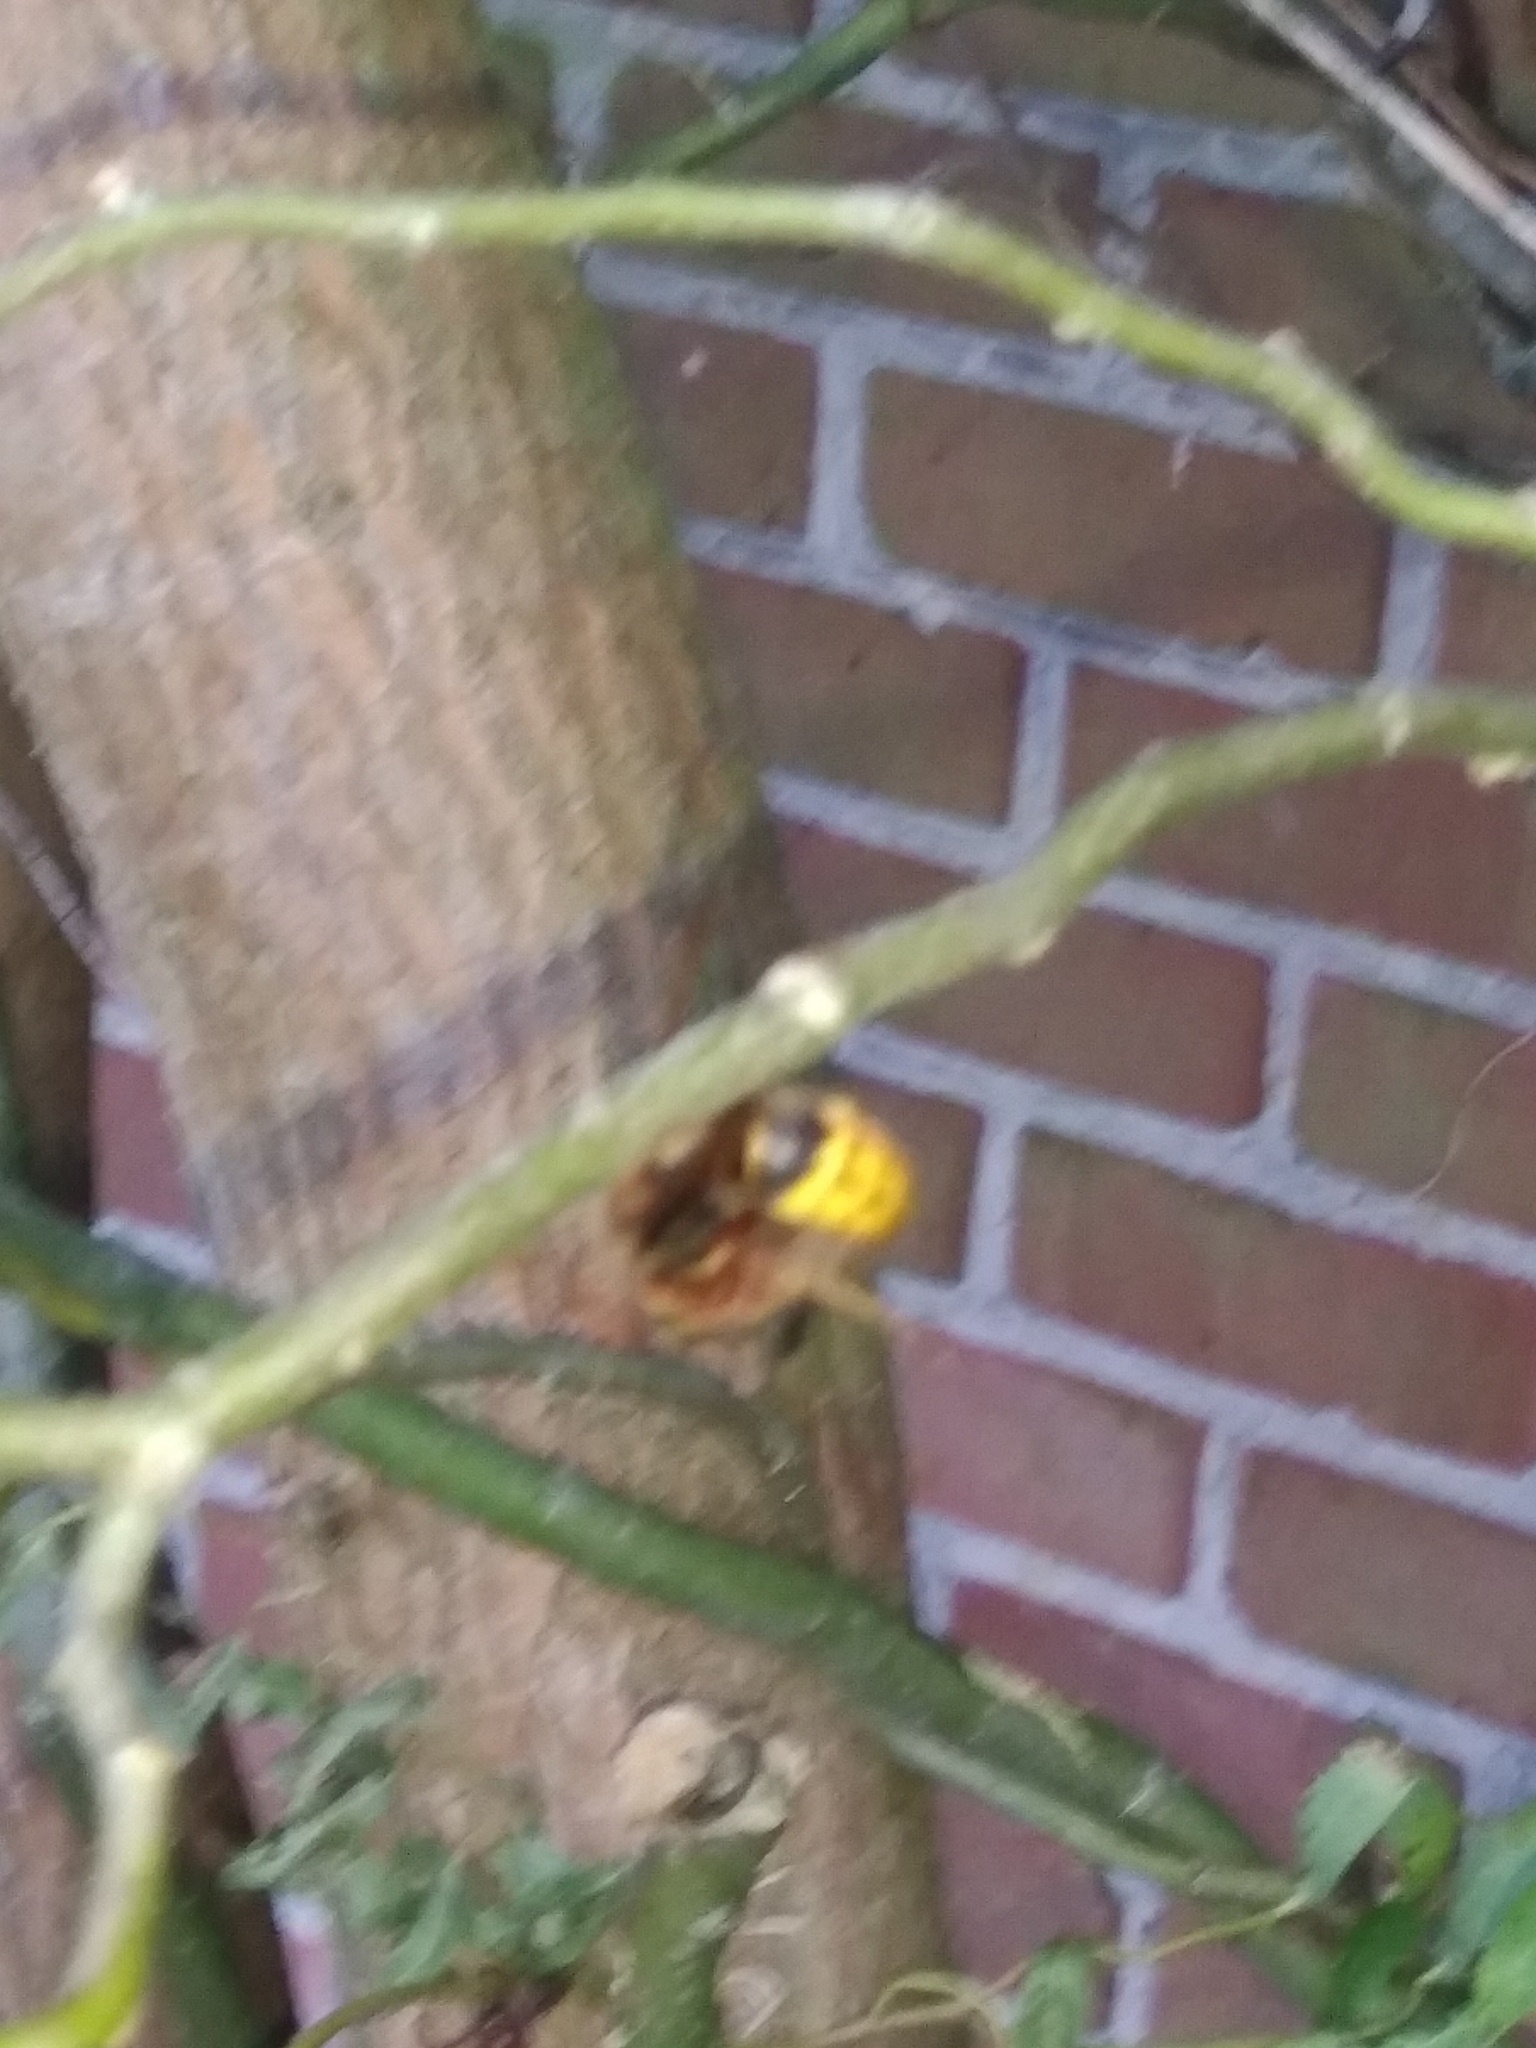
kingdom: Animalia
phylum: Arthropoda
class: Insecta
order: Hymenoptera
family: Vespidae
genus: Vespa
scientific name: Vespa crabro
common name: Hornet
